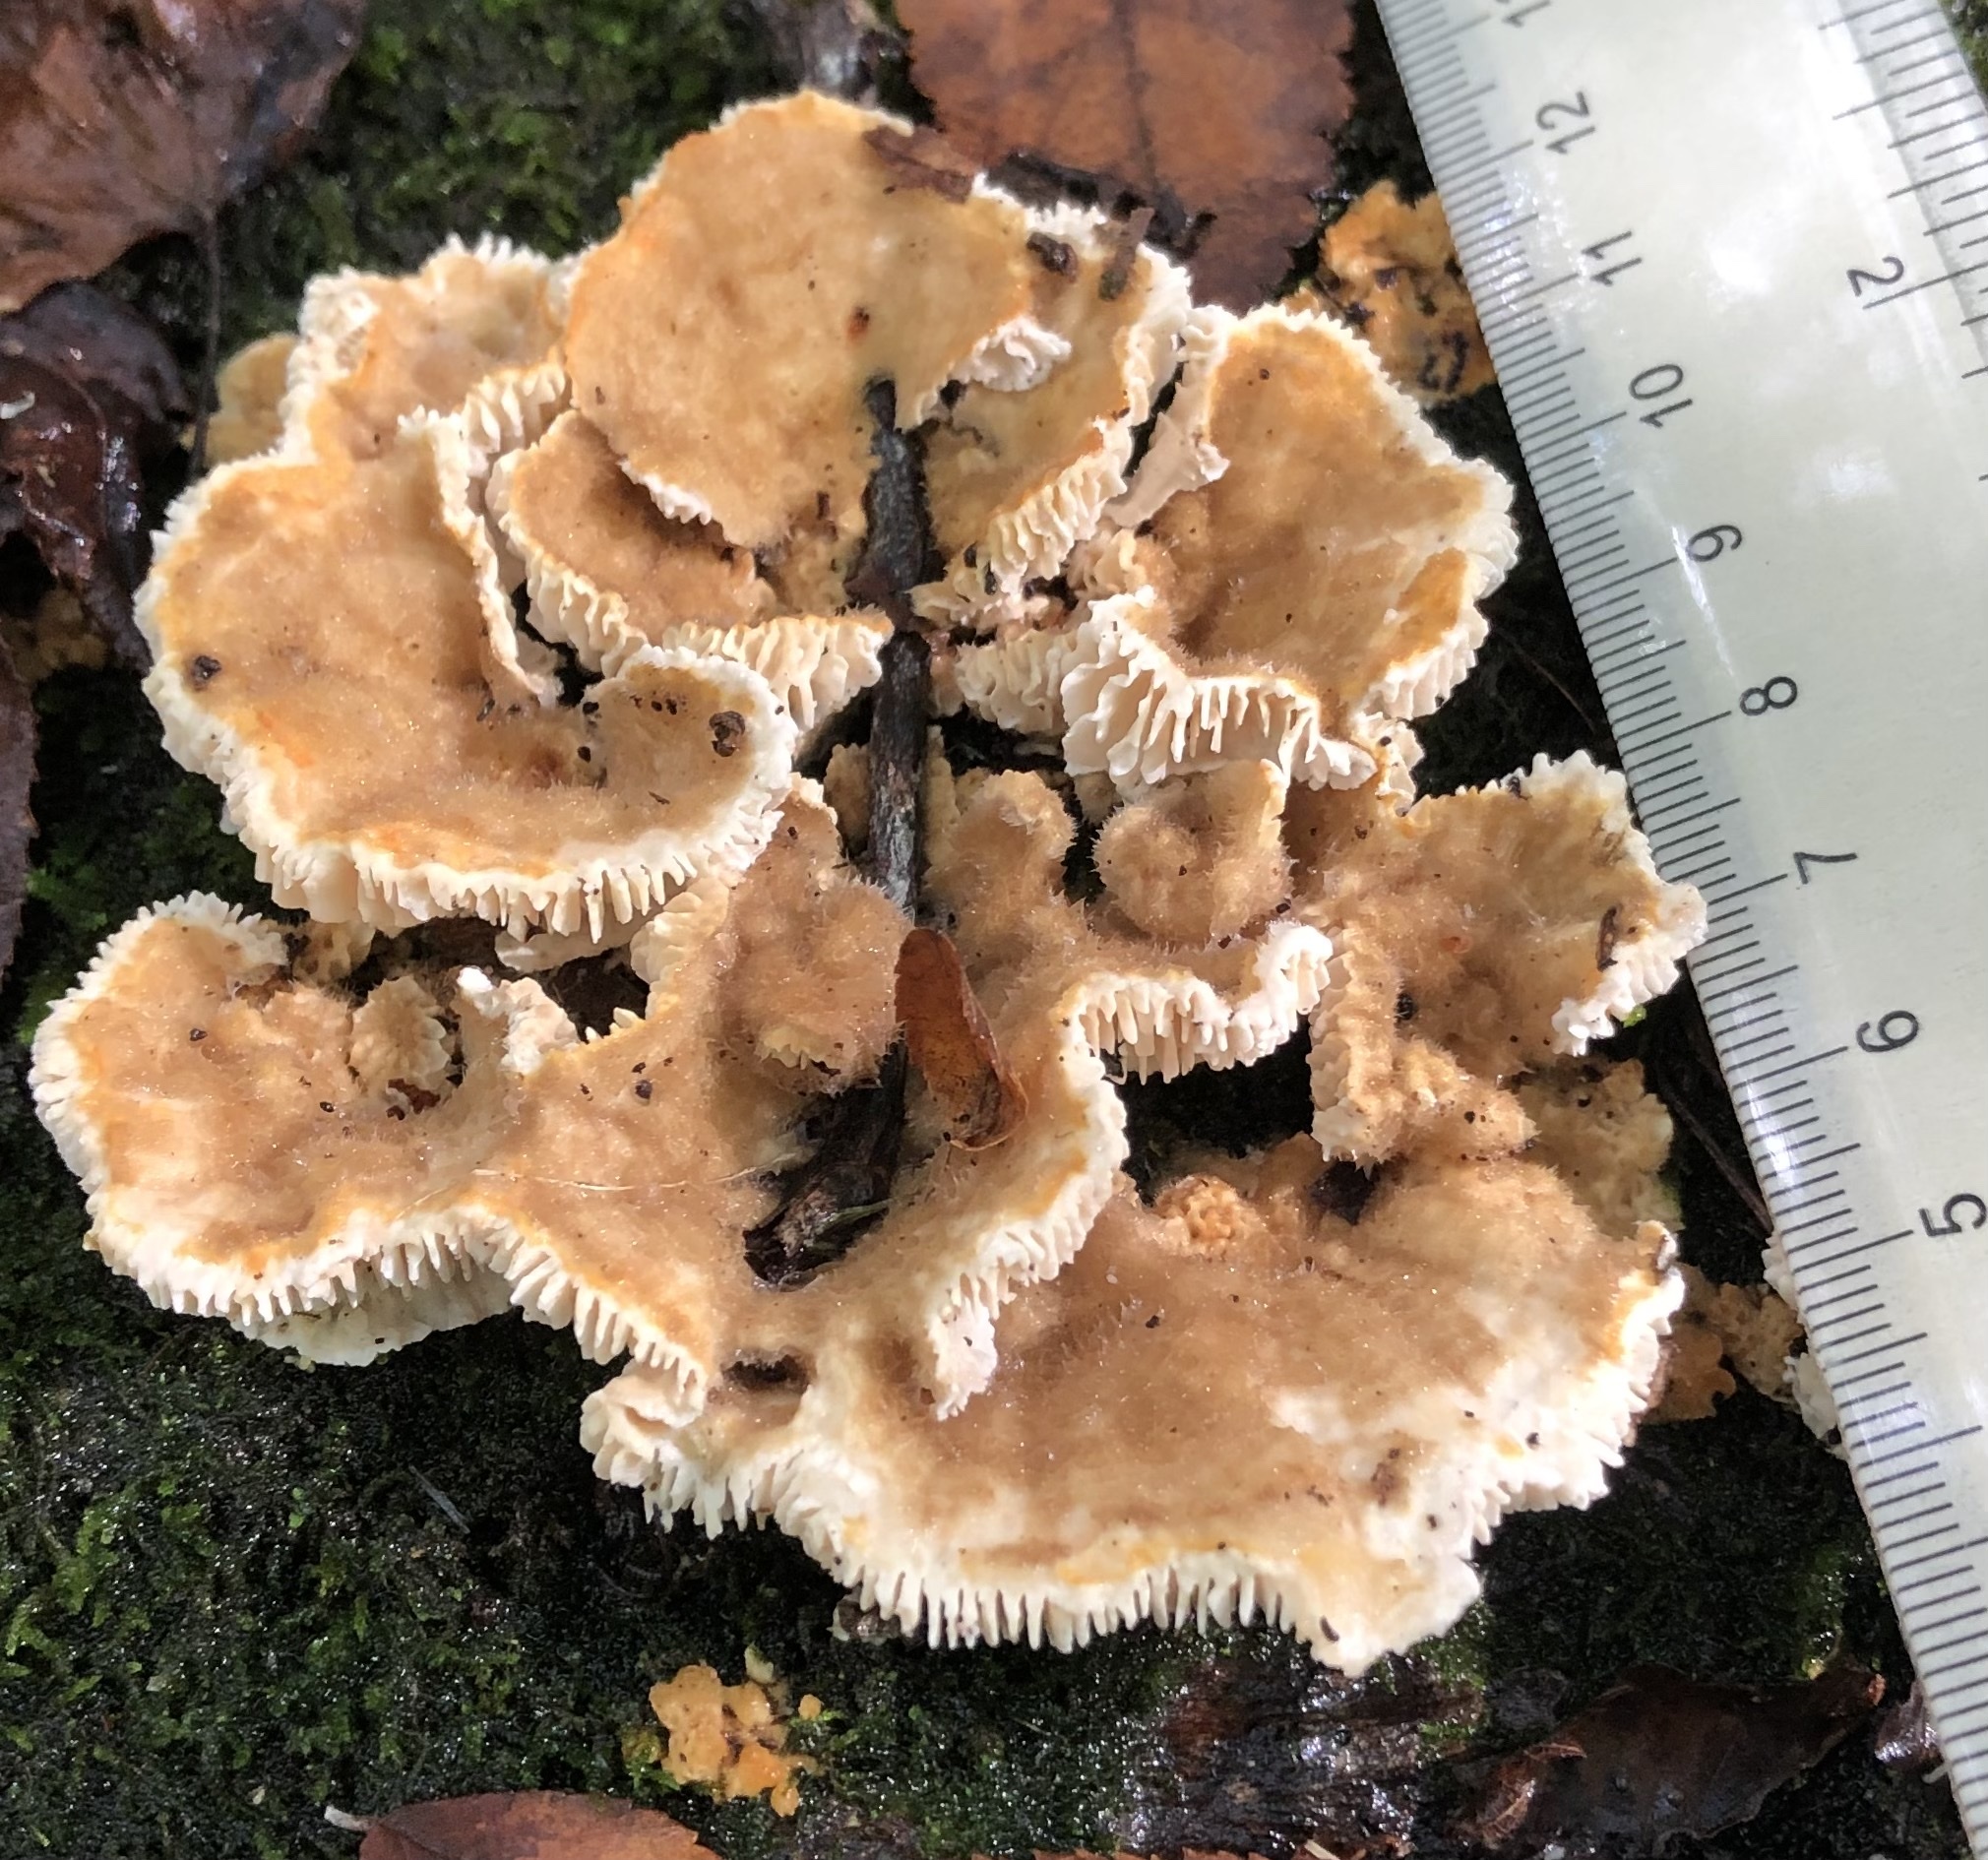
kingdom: Fungi
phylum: Basidiomycota
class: Agaricomycetes
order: Polyporales
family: Polyporaceae
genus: Lenzites
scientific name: Lenzites betulinus
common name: Birch mazegill
